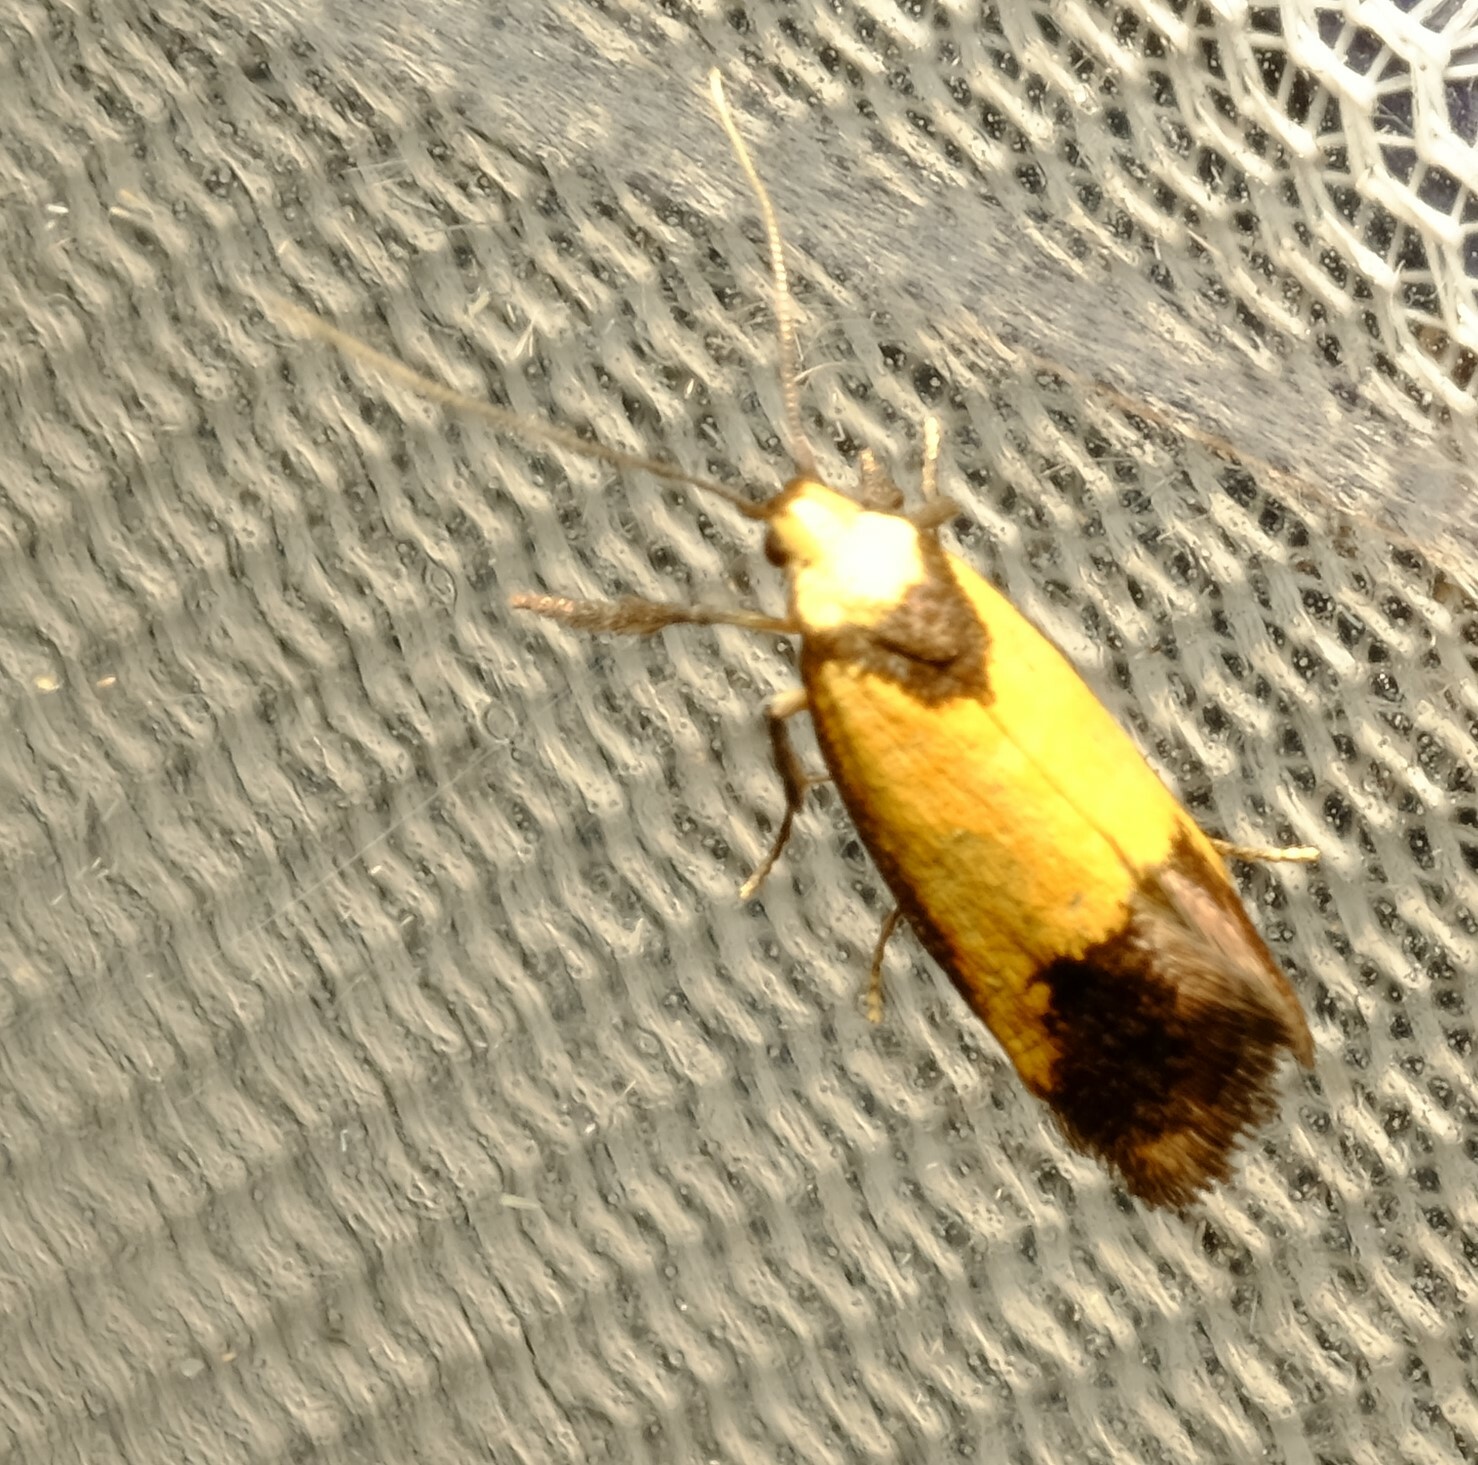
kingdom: Animalia
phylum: Arthropoda
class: Insecta
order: Lepidoptera
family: Oecophoridae
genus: Crepidosceles
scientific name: Crepidosceles timalphes
